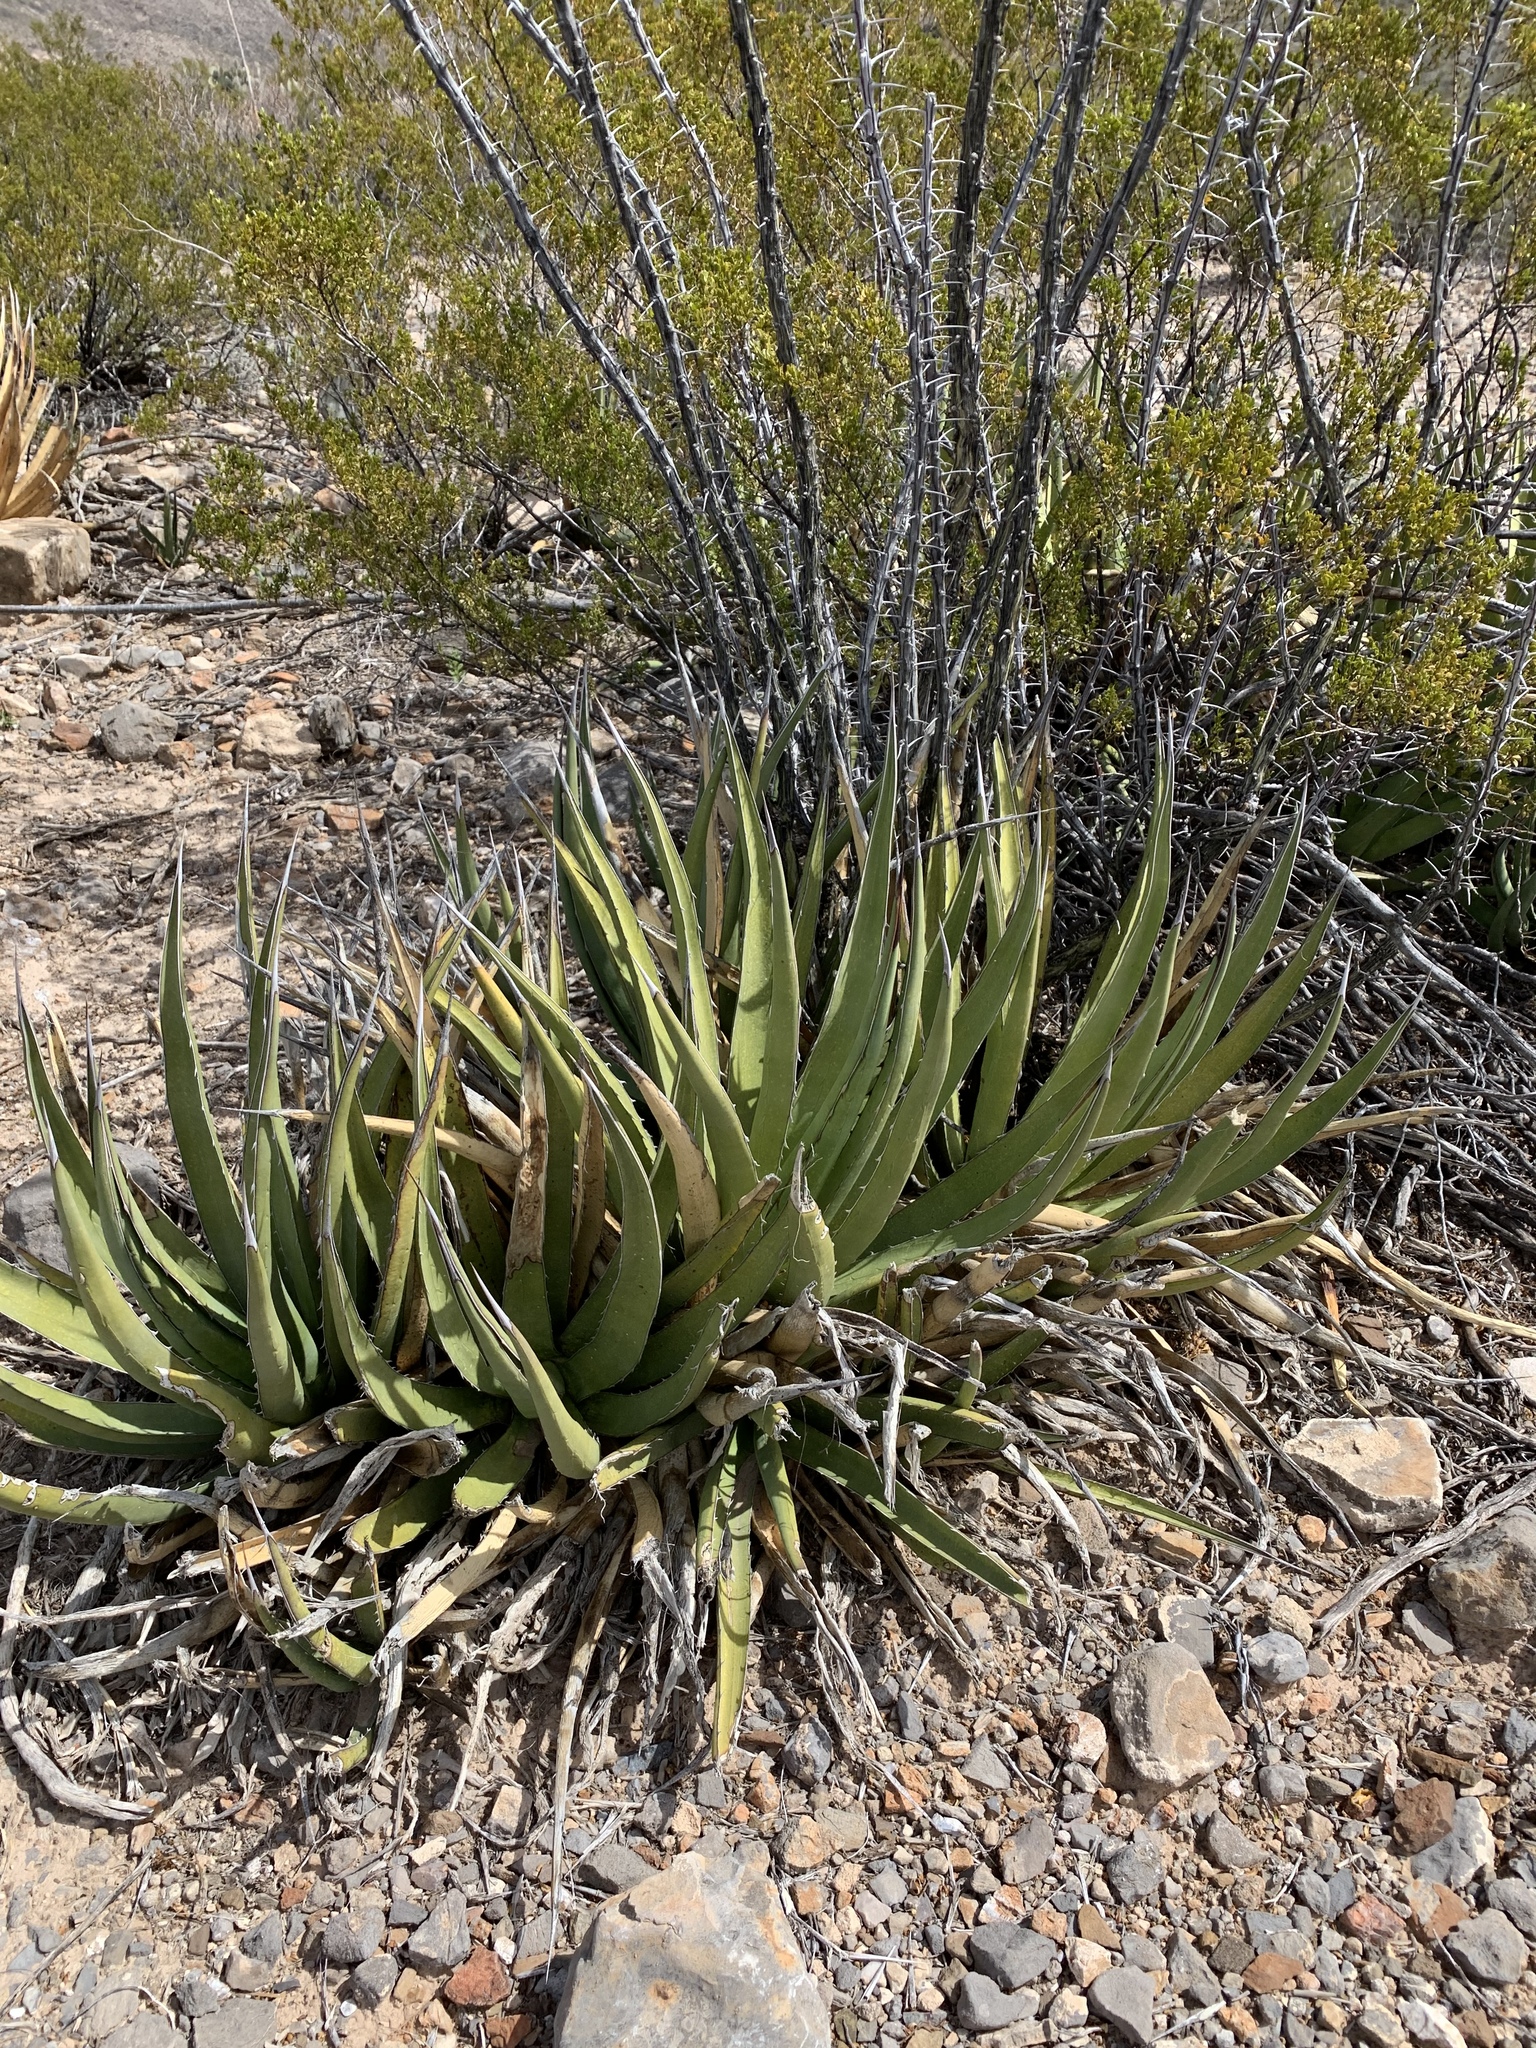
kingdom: Plantae
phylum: Tracheophyta
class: Liliopsida
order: Asparagales
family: Asparagaceae
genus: Agave
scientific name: Agave lechuguilla
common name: Lecheguilla agave
